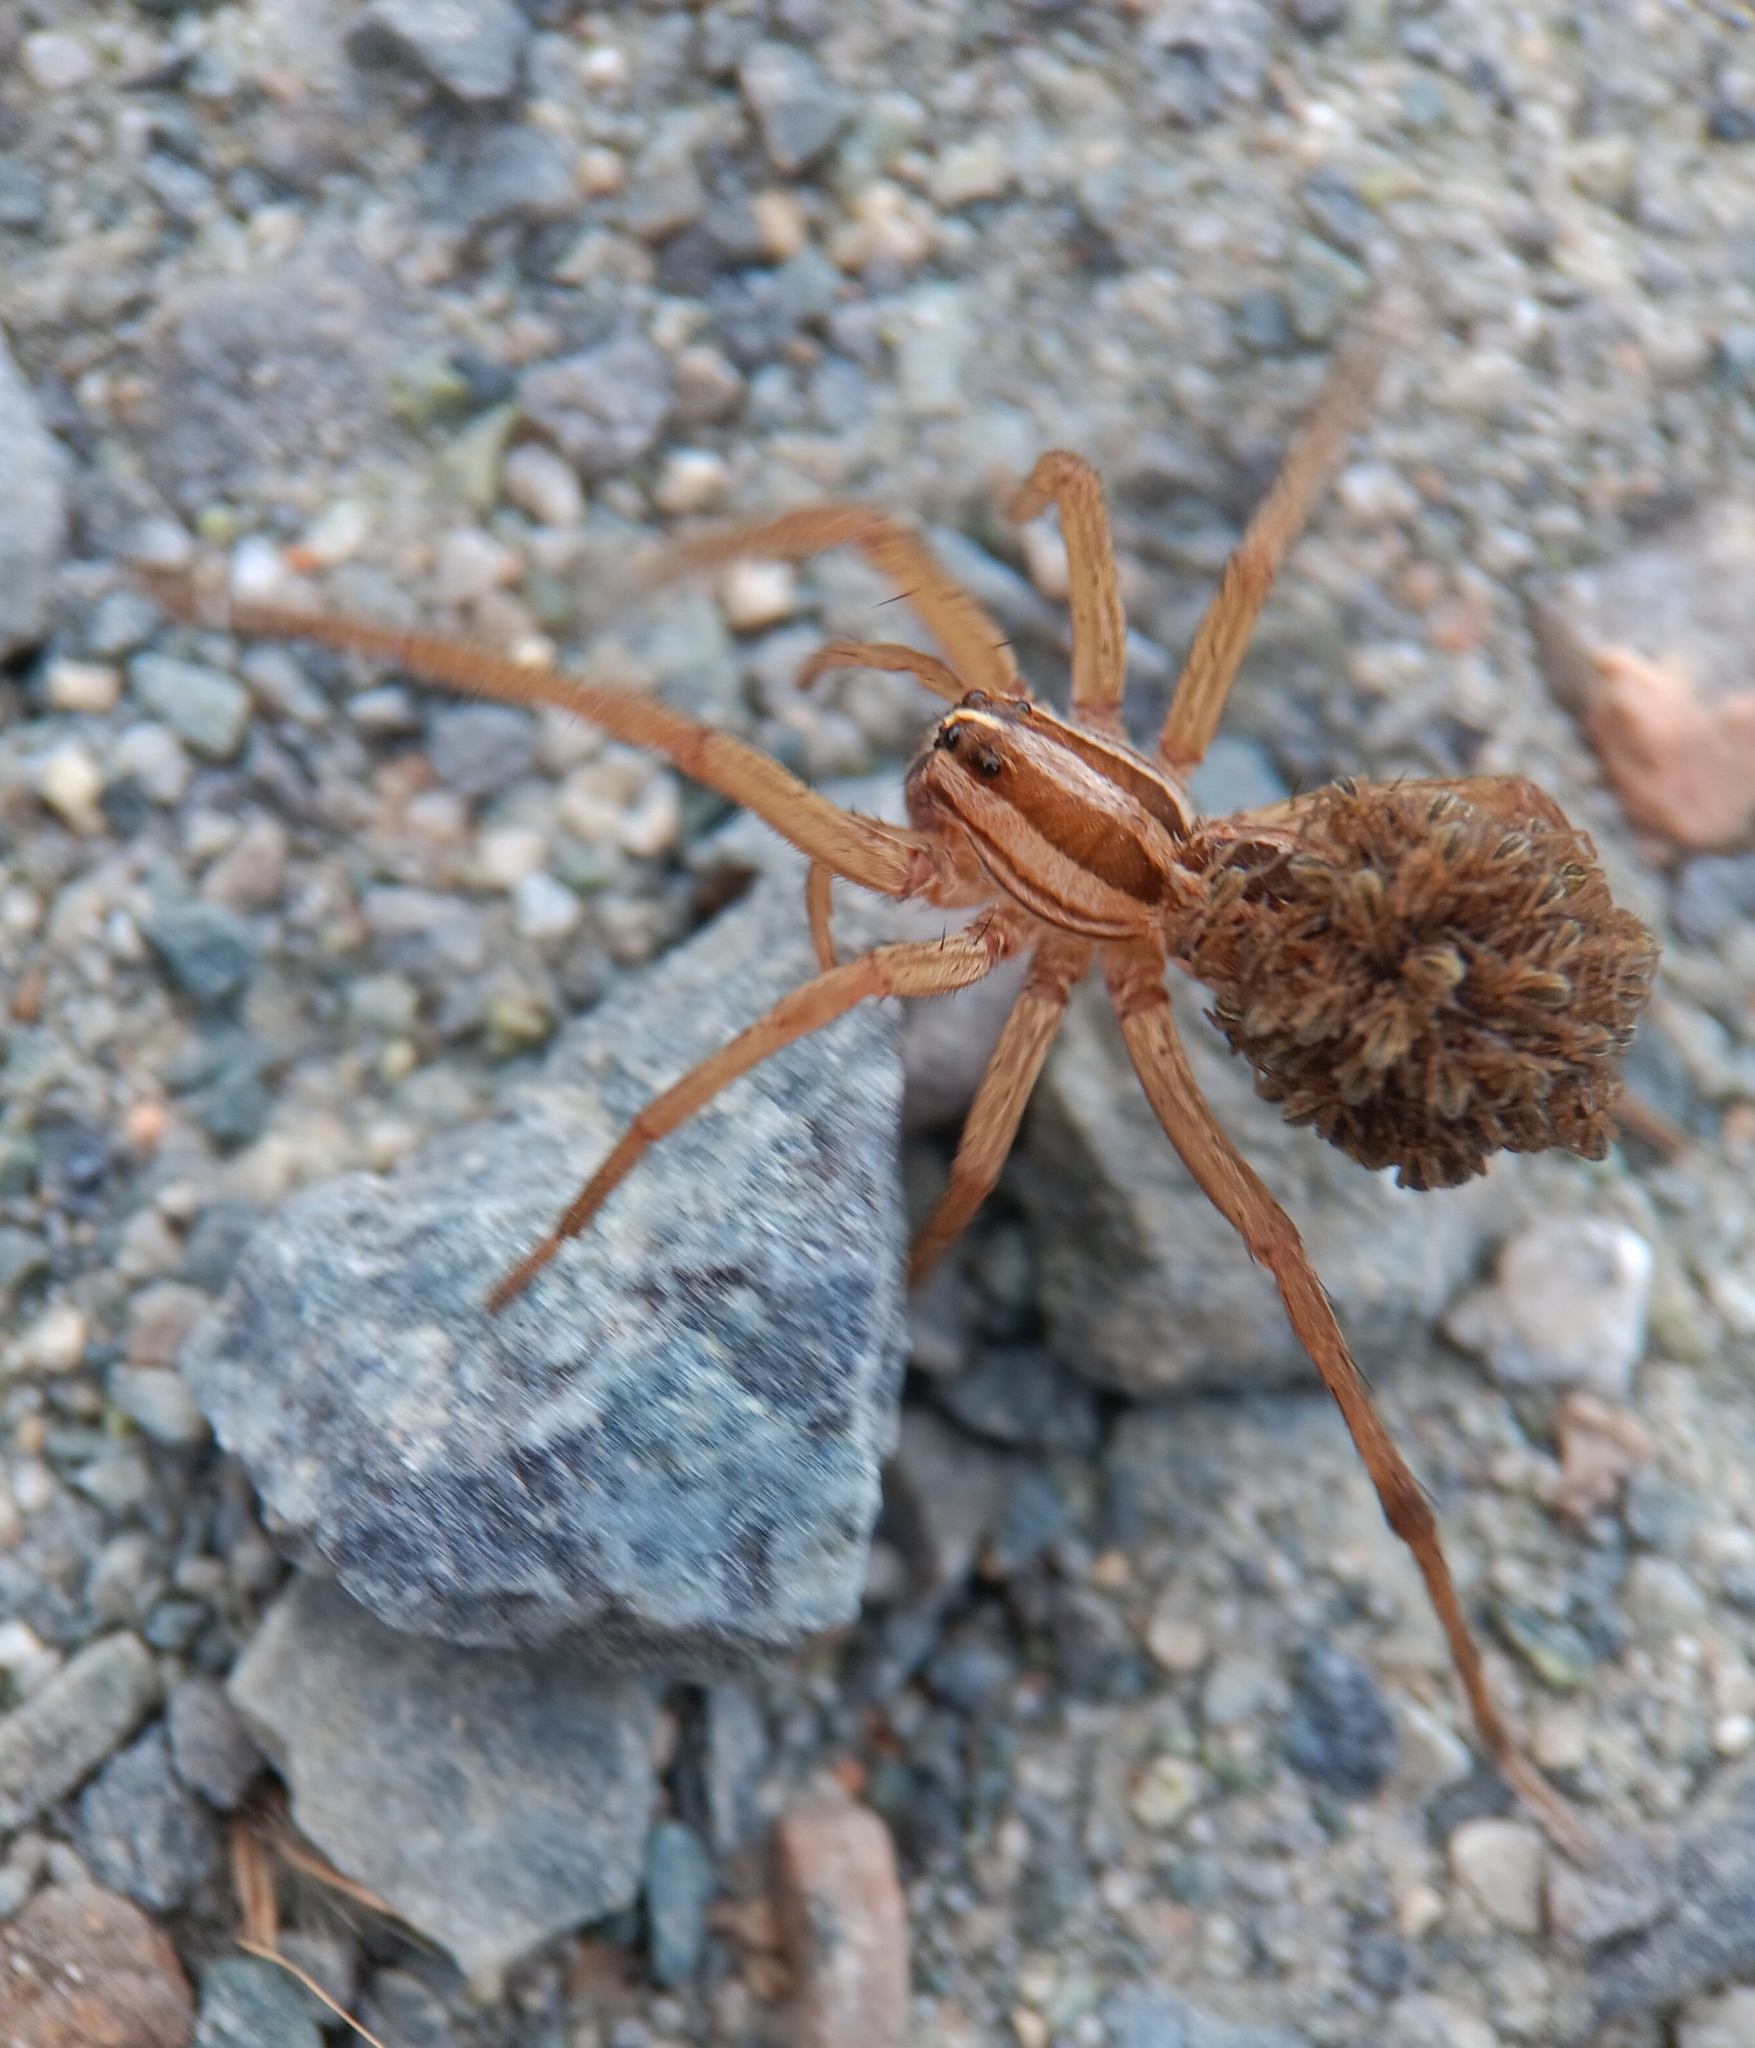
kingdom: Animalia
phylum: Arthropoda
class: Arachnida
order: Araneae
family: Lycosidae
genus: Rabidosa
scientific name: Rabidosa rabida
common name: Rabid wolf spider
